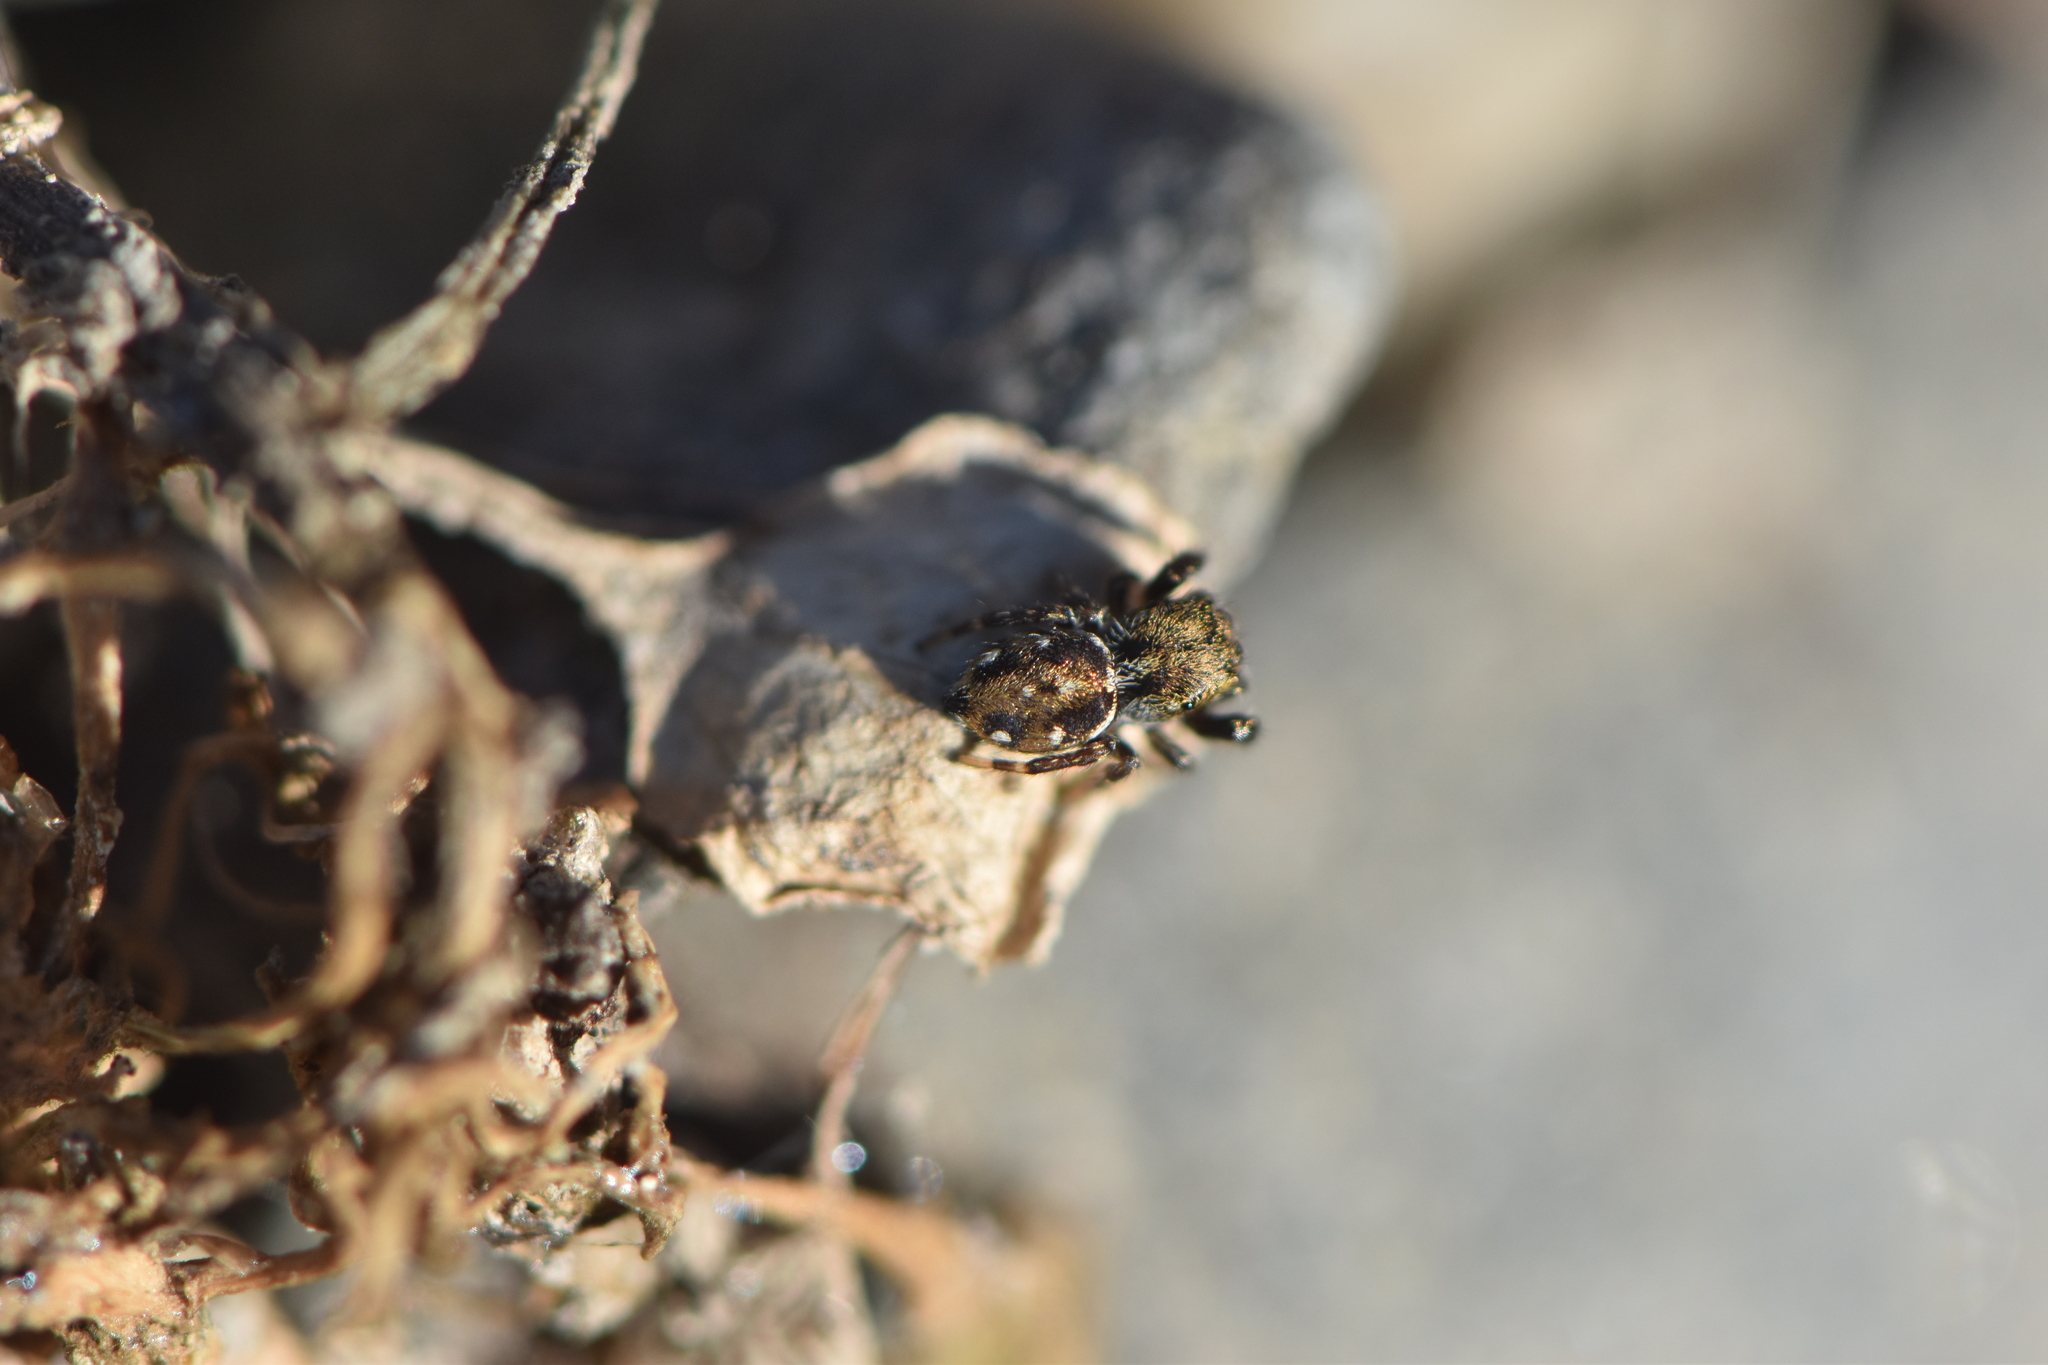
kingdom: Animalia
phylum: Arthropoda
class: Arachnida
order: Araneae
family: Salticidae
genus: Bianor
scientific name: Bianor albobimaculatus
